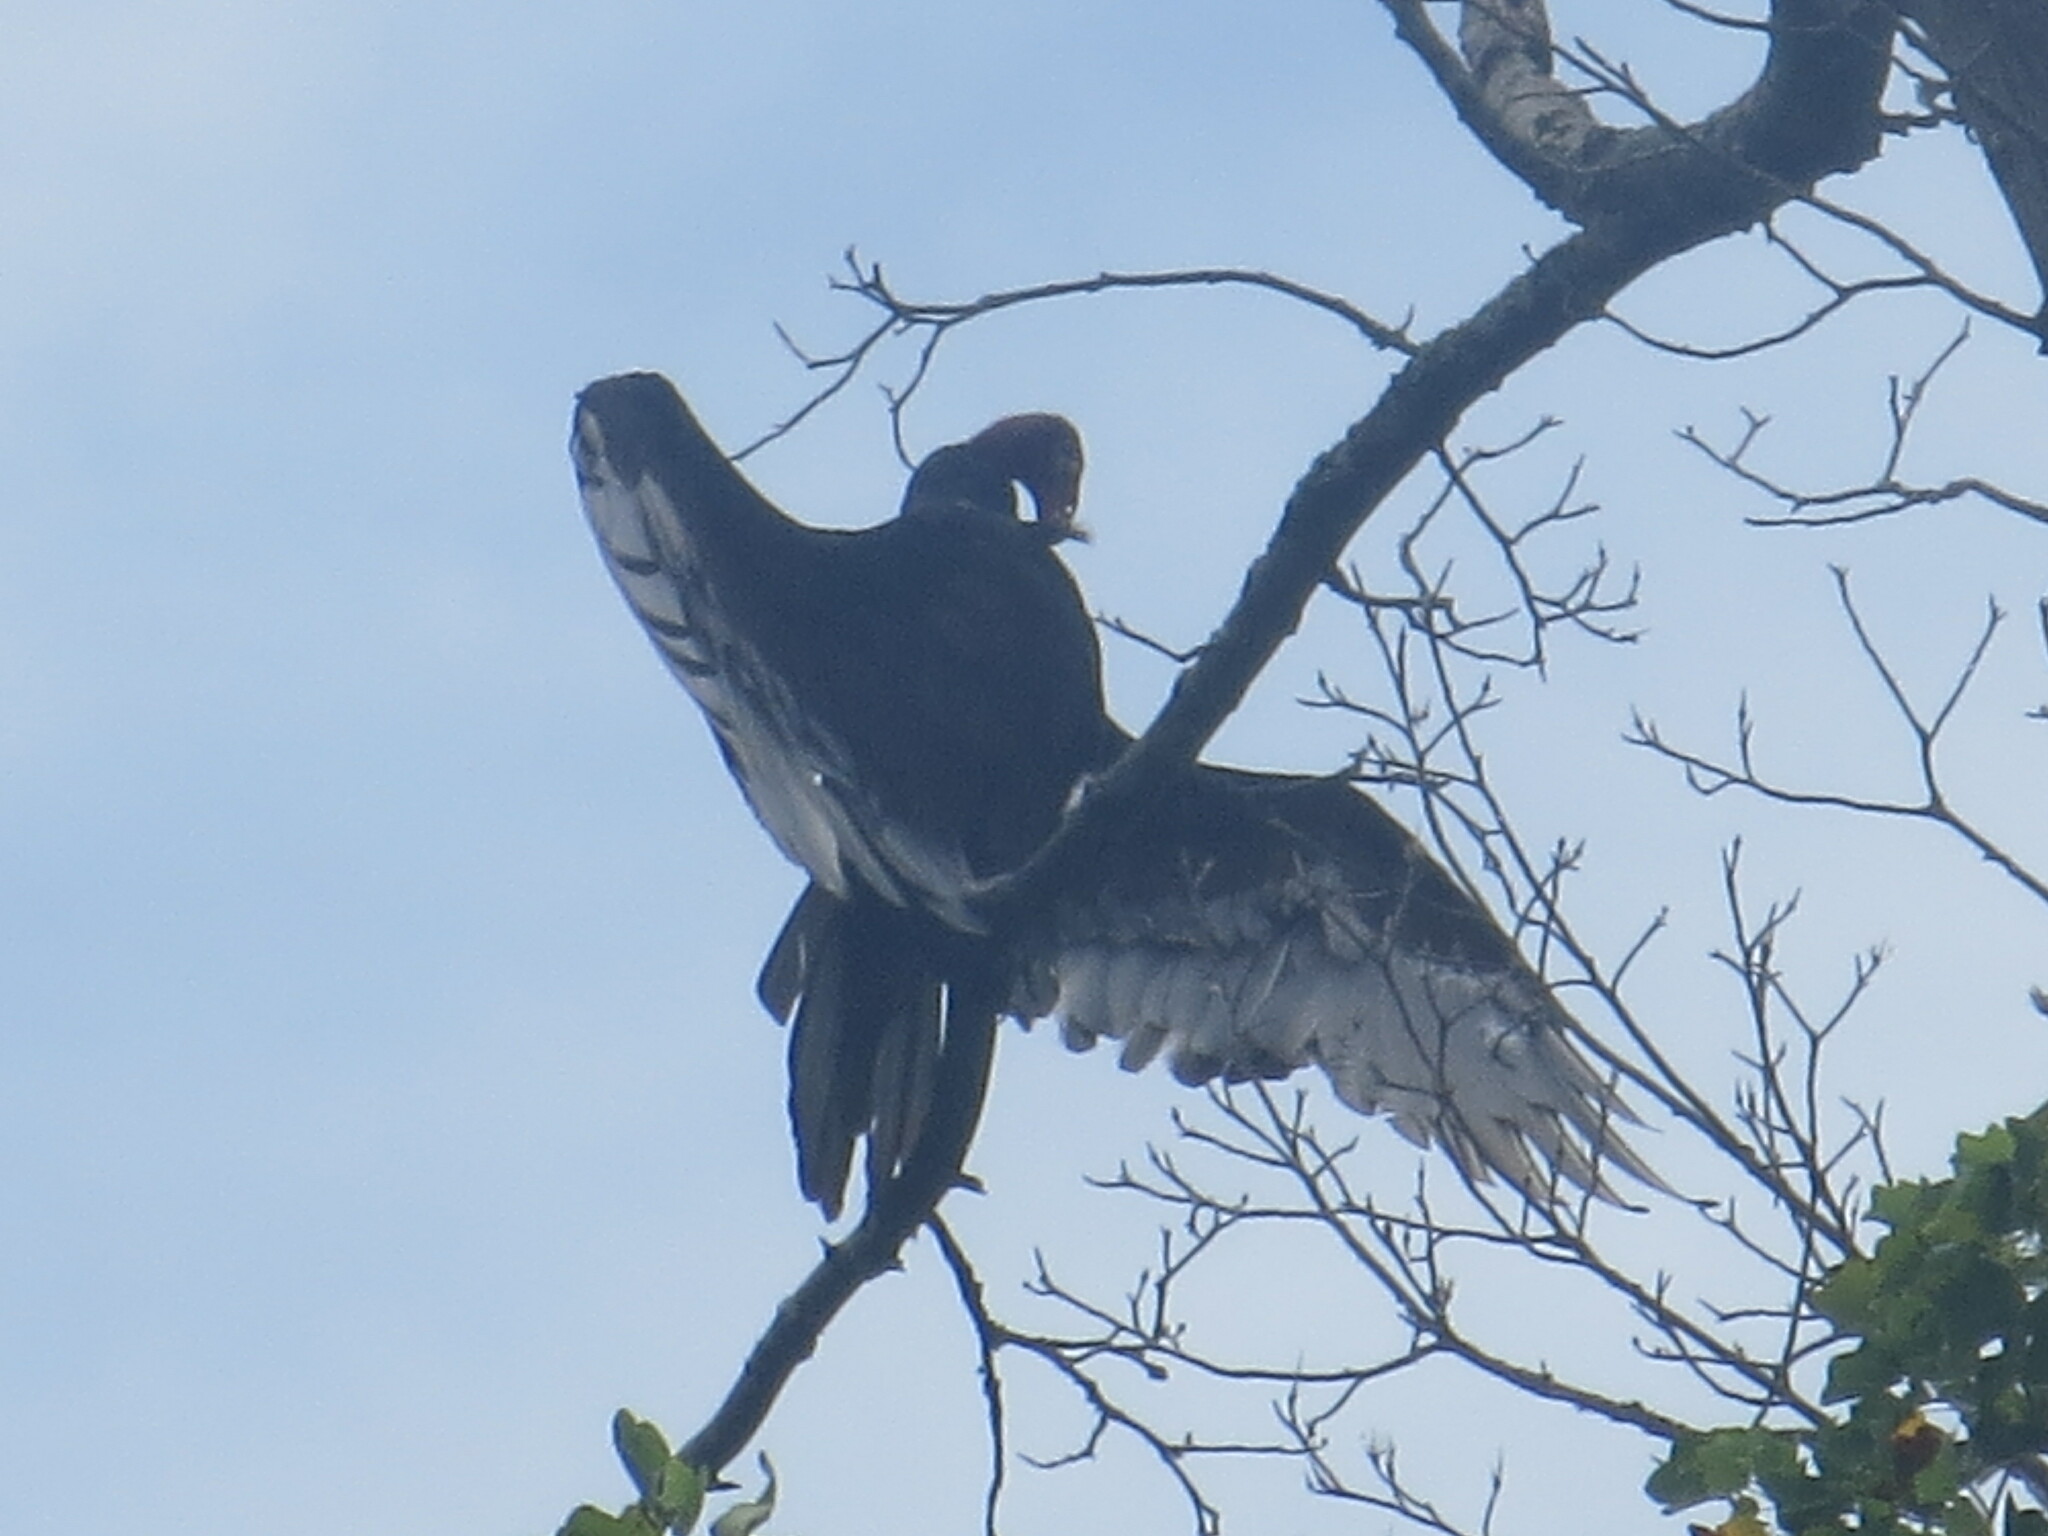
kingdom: Animalia
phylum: Chordata
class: Aves
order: Accipitriformes
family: Cathartidae
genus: Cathartes
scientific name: Cathartes aura
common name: Turkey vulture
